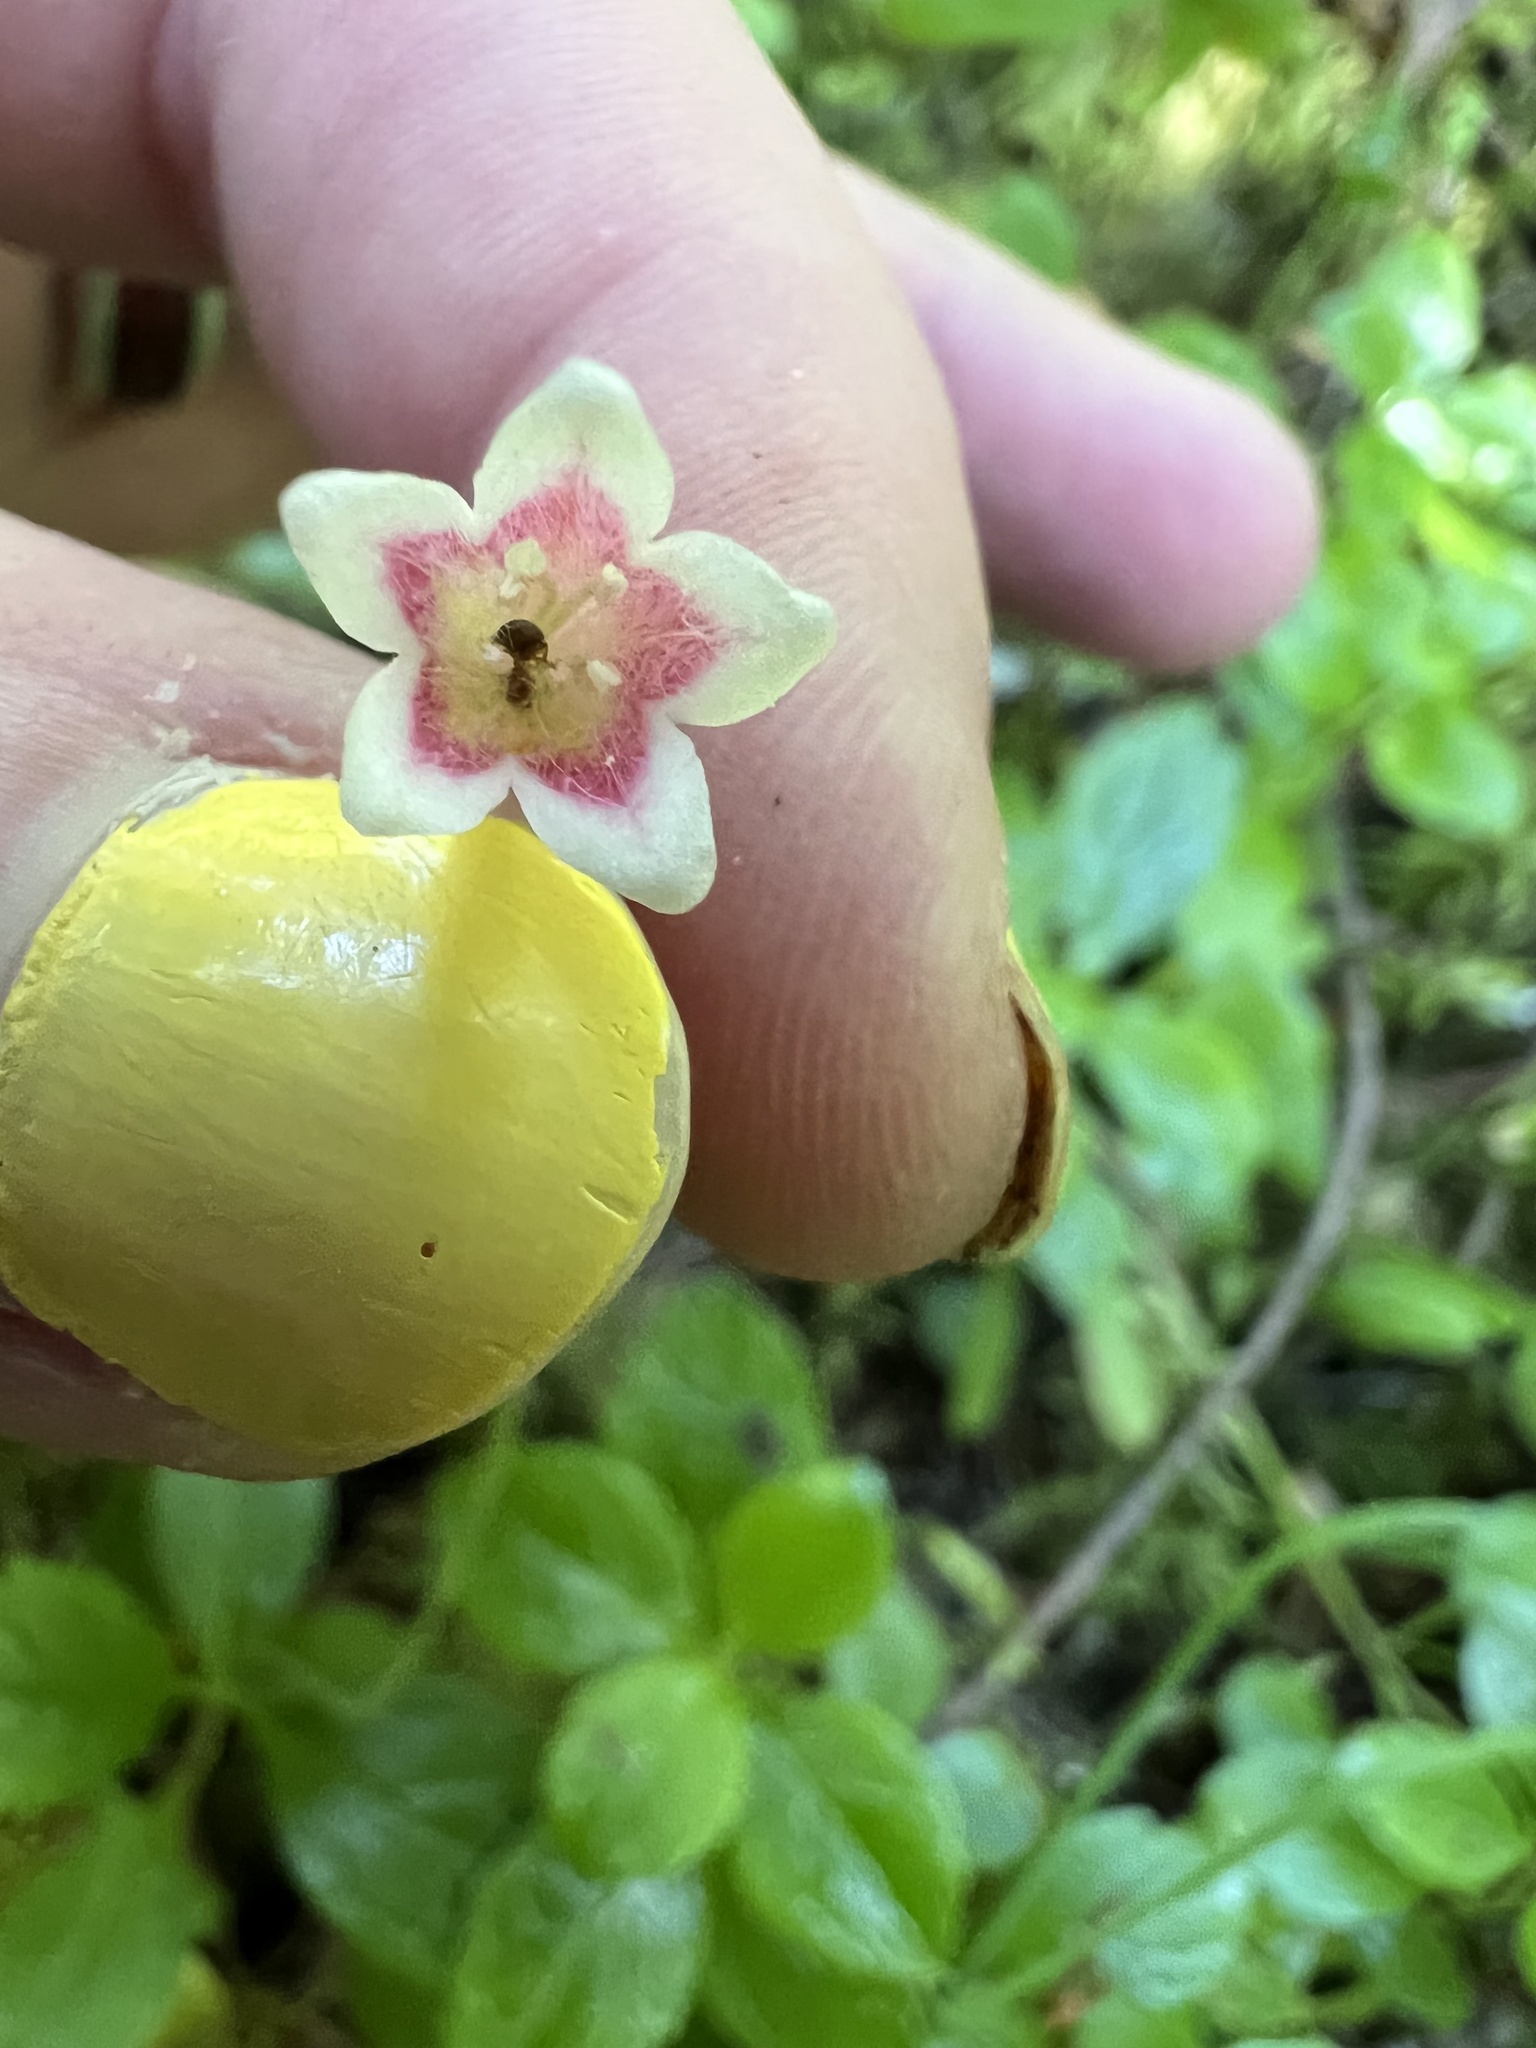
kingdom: Plantae
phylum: Tracheophyta
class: Magnoliopsida
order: Dipsacales
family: Caprifoliaceae
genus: Linnaea
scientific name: Linnaea borealis
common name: Twinflower
